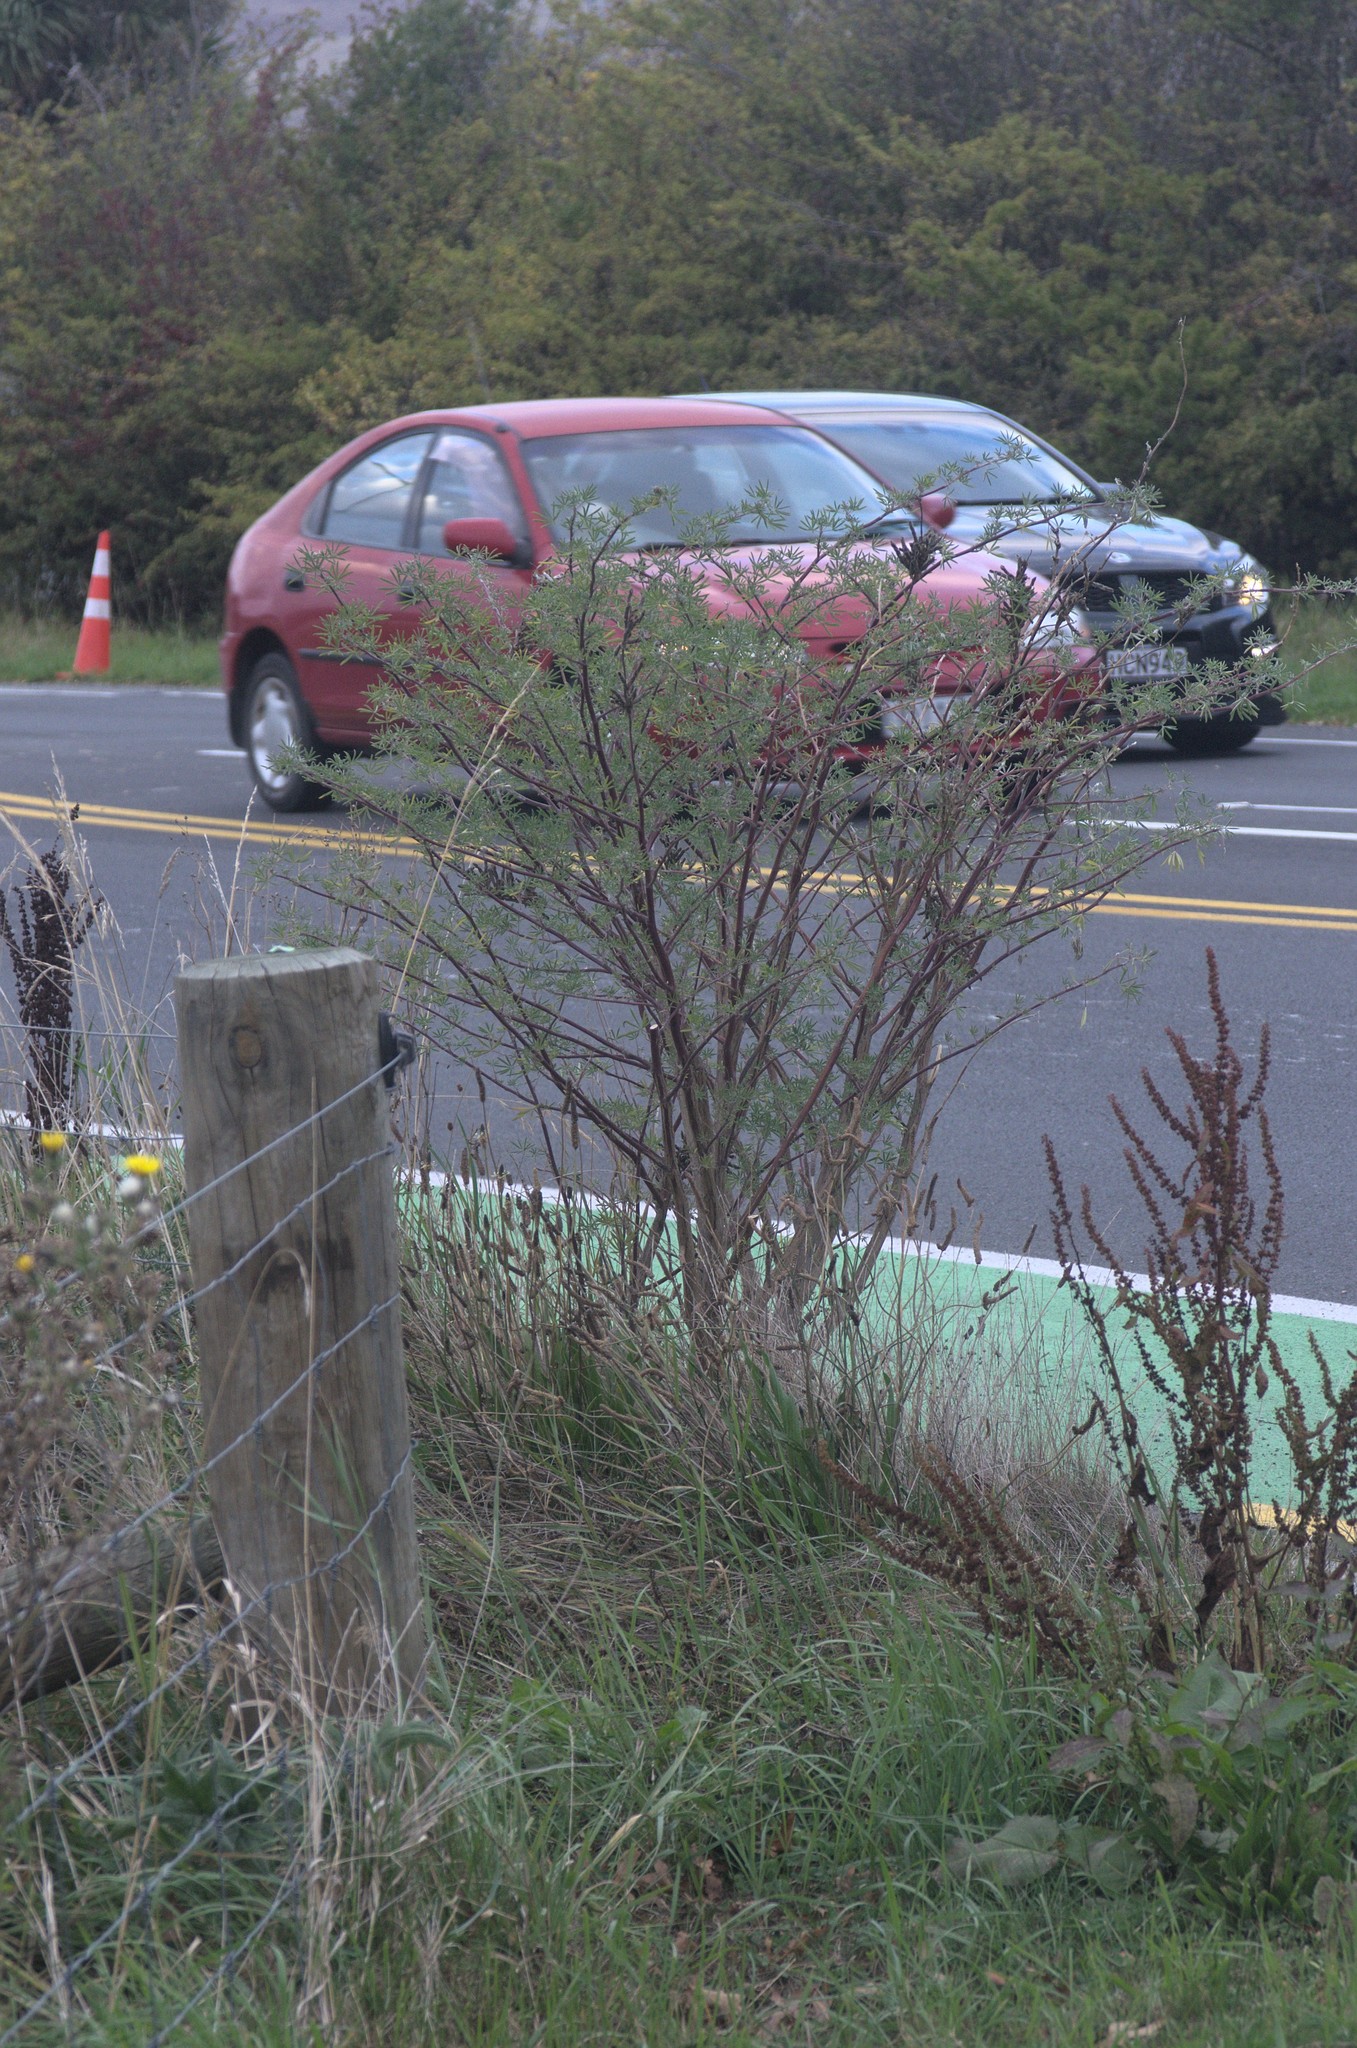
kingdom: Plantae
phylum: Tracheophyta
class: Magnoliopsida
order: Fabales
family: Fabaceae
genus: Lupinus
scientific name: Lupinus arboreus
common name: Yellow bush lupine
